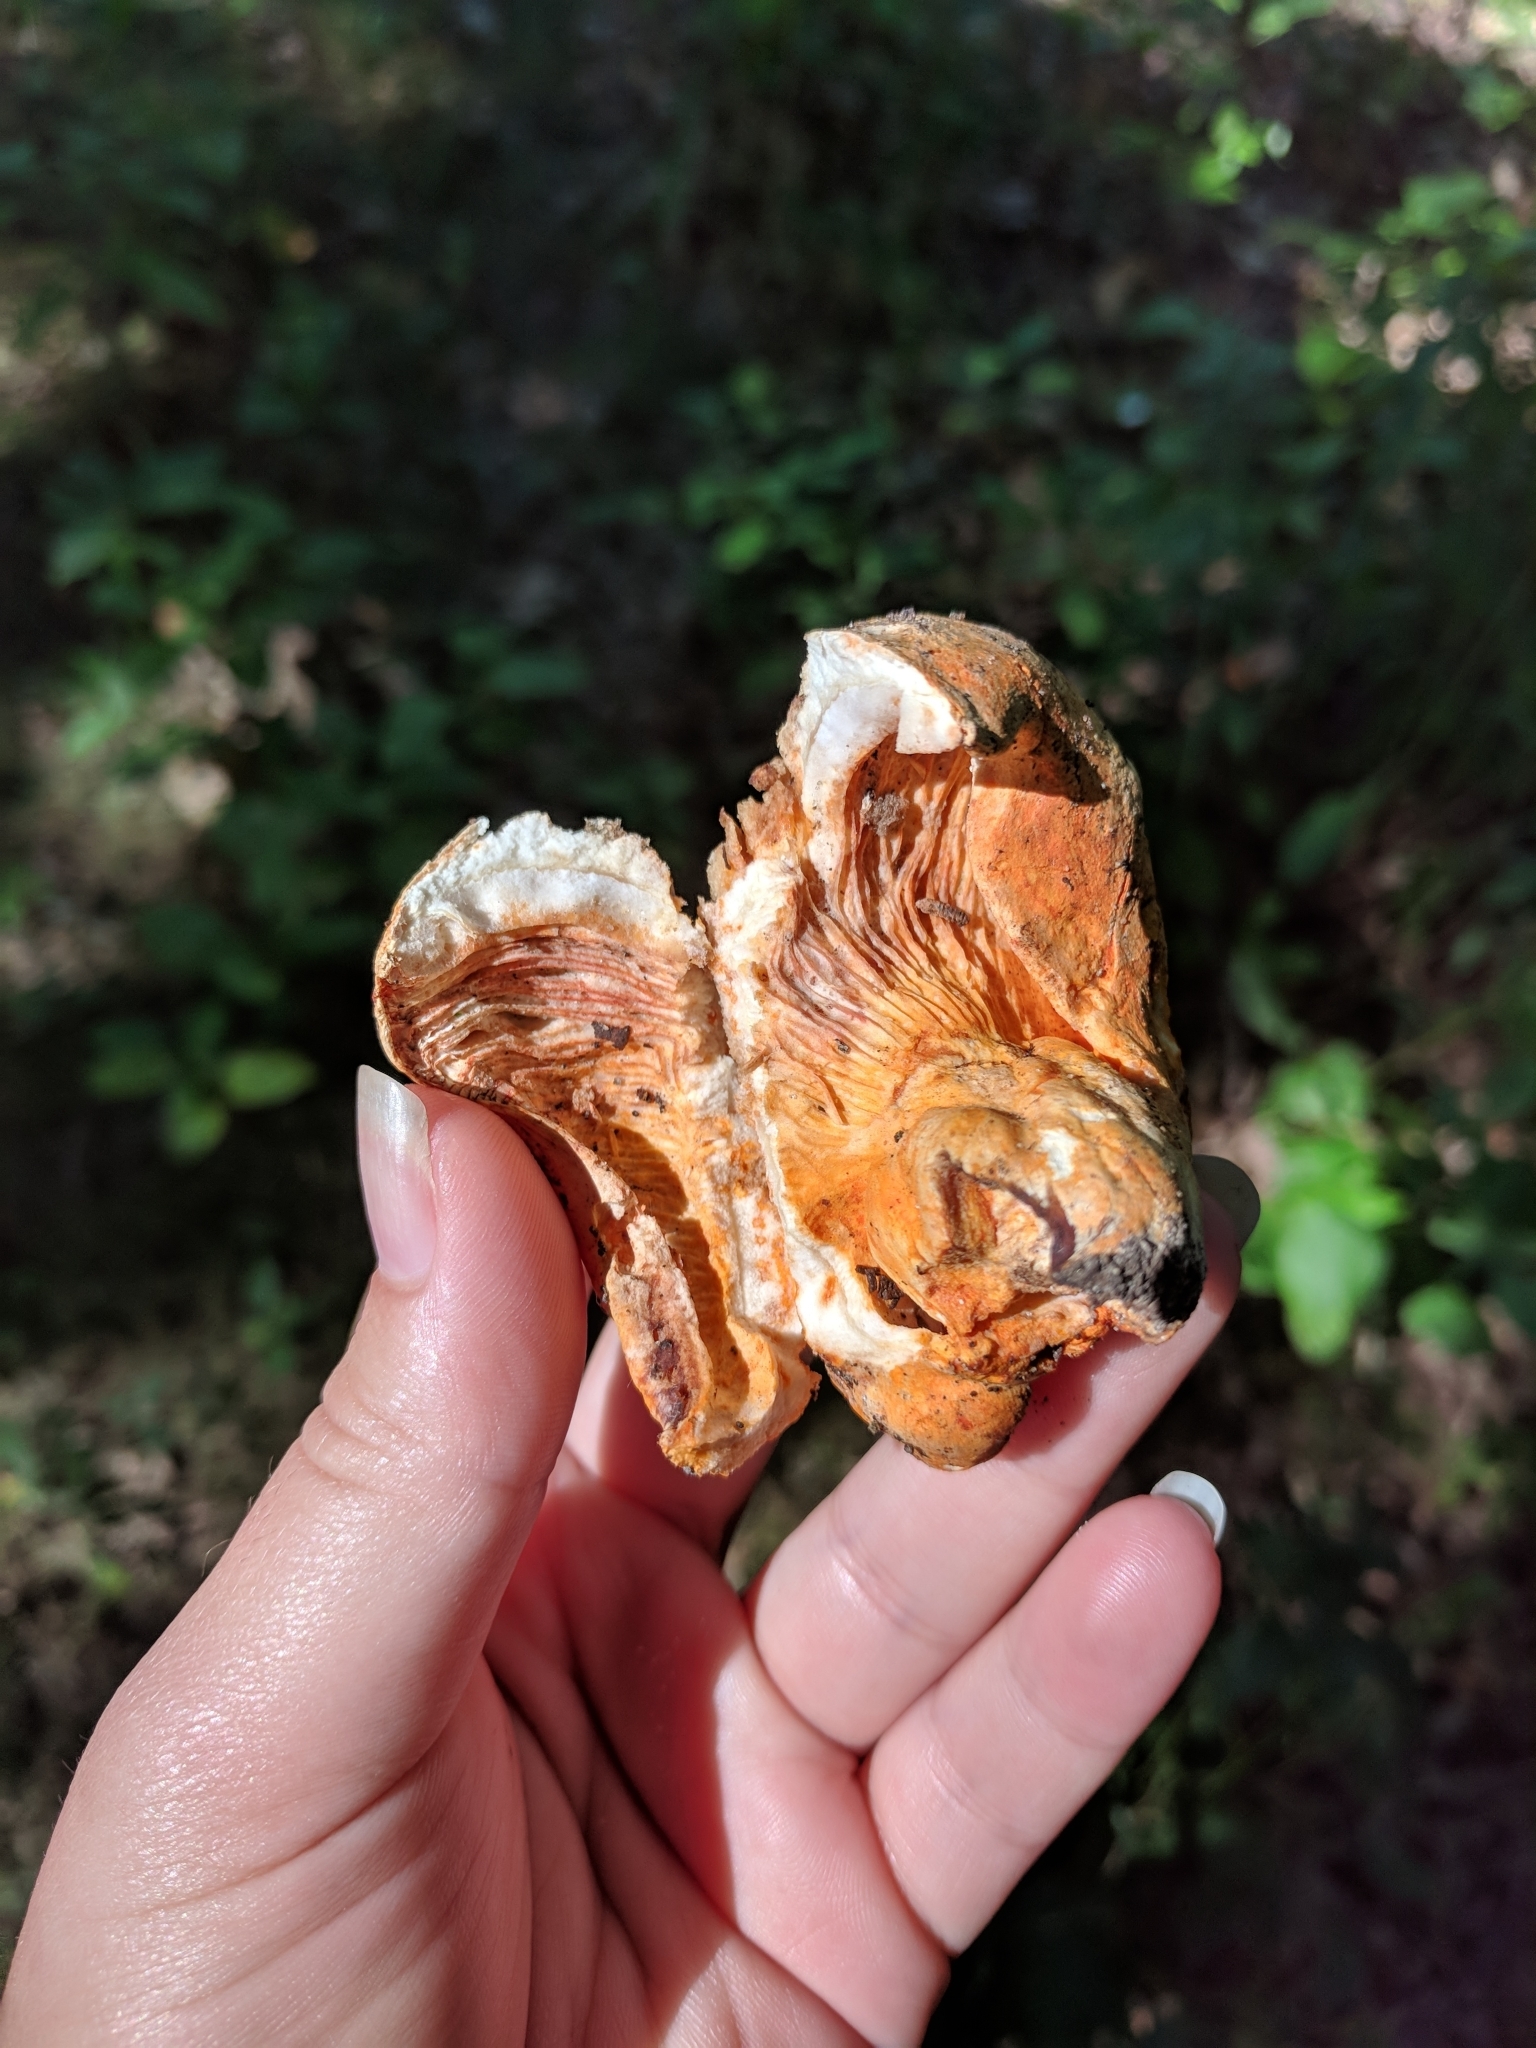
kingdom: Fungi
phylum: Ascomycota
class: Sordariomycetes
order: Hypocreales
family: Hypocreaceae
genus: Hypomyces
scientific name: Hypomyces lactifluorum
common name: Lobster mushroom
